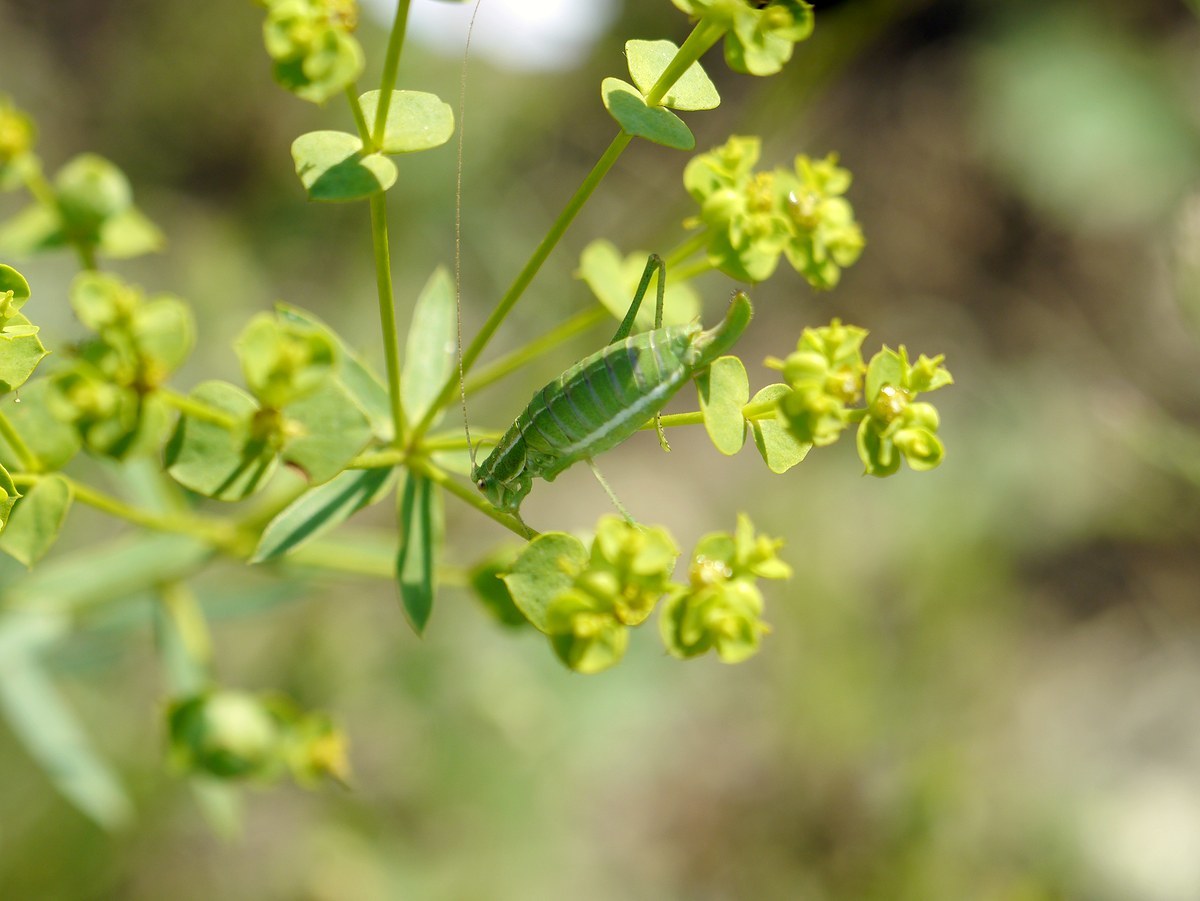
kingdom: Animalia
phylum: Arthropoda
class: Insecta
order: Orthoptera
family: Tettigoniidae
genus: Poecilimon
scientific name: Poecilimon intermedius
